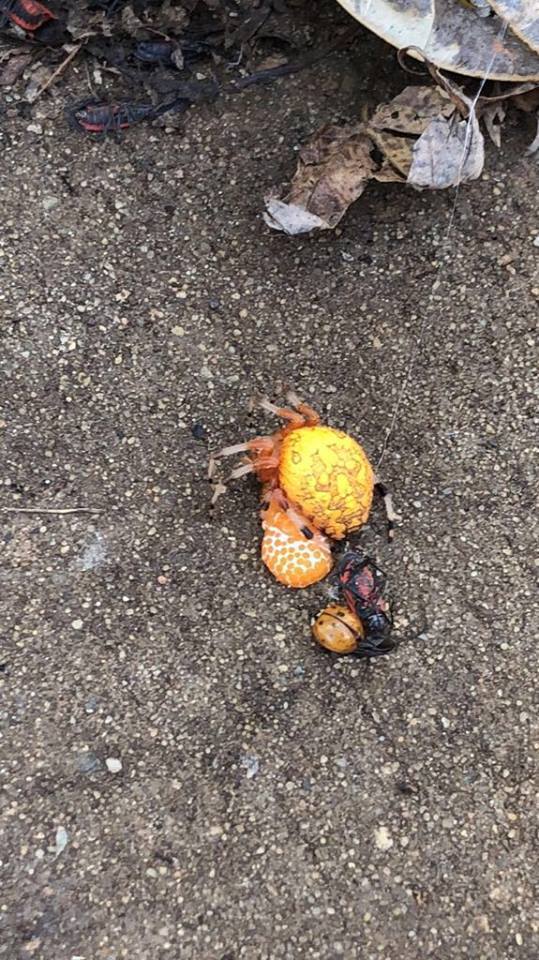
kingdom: Animalia
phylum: Arthropoda
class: Arachnida
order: Araneae
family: Araneidae
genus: Araneus
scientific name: Araneus marmoreus
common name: Marbled orbweaver
